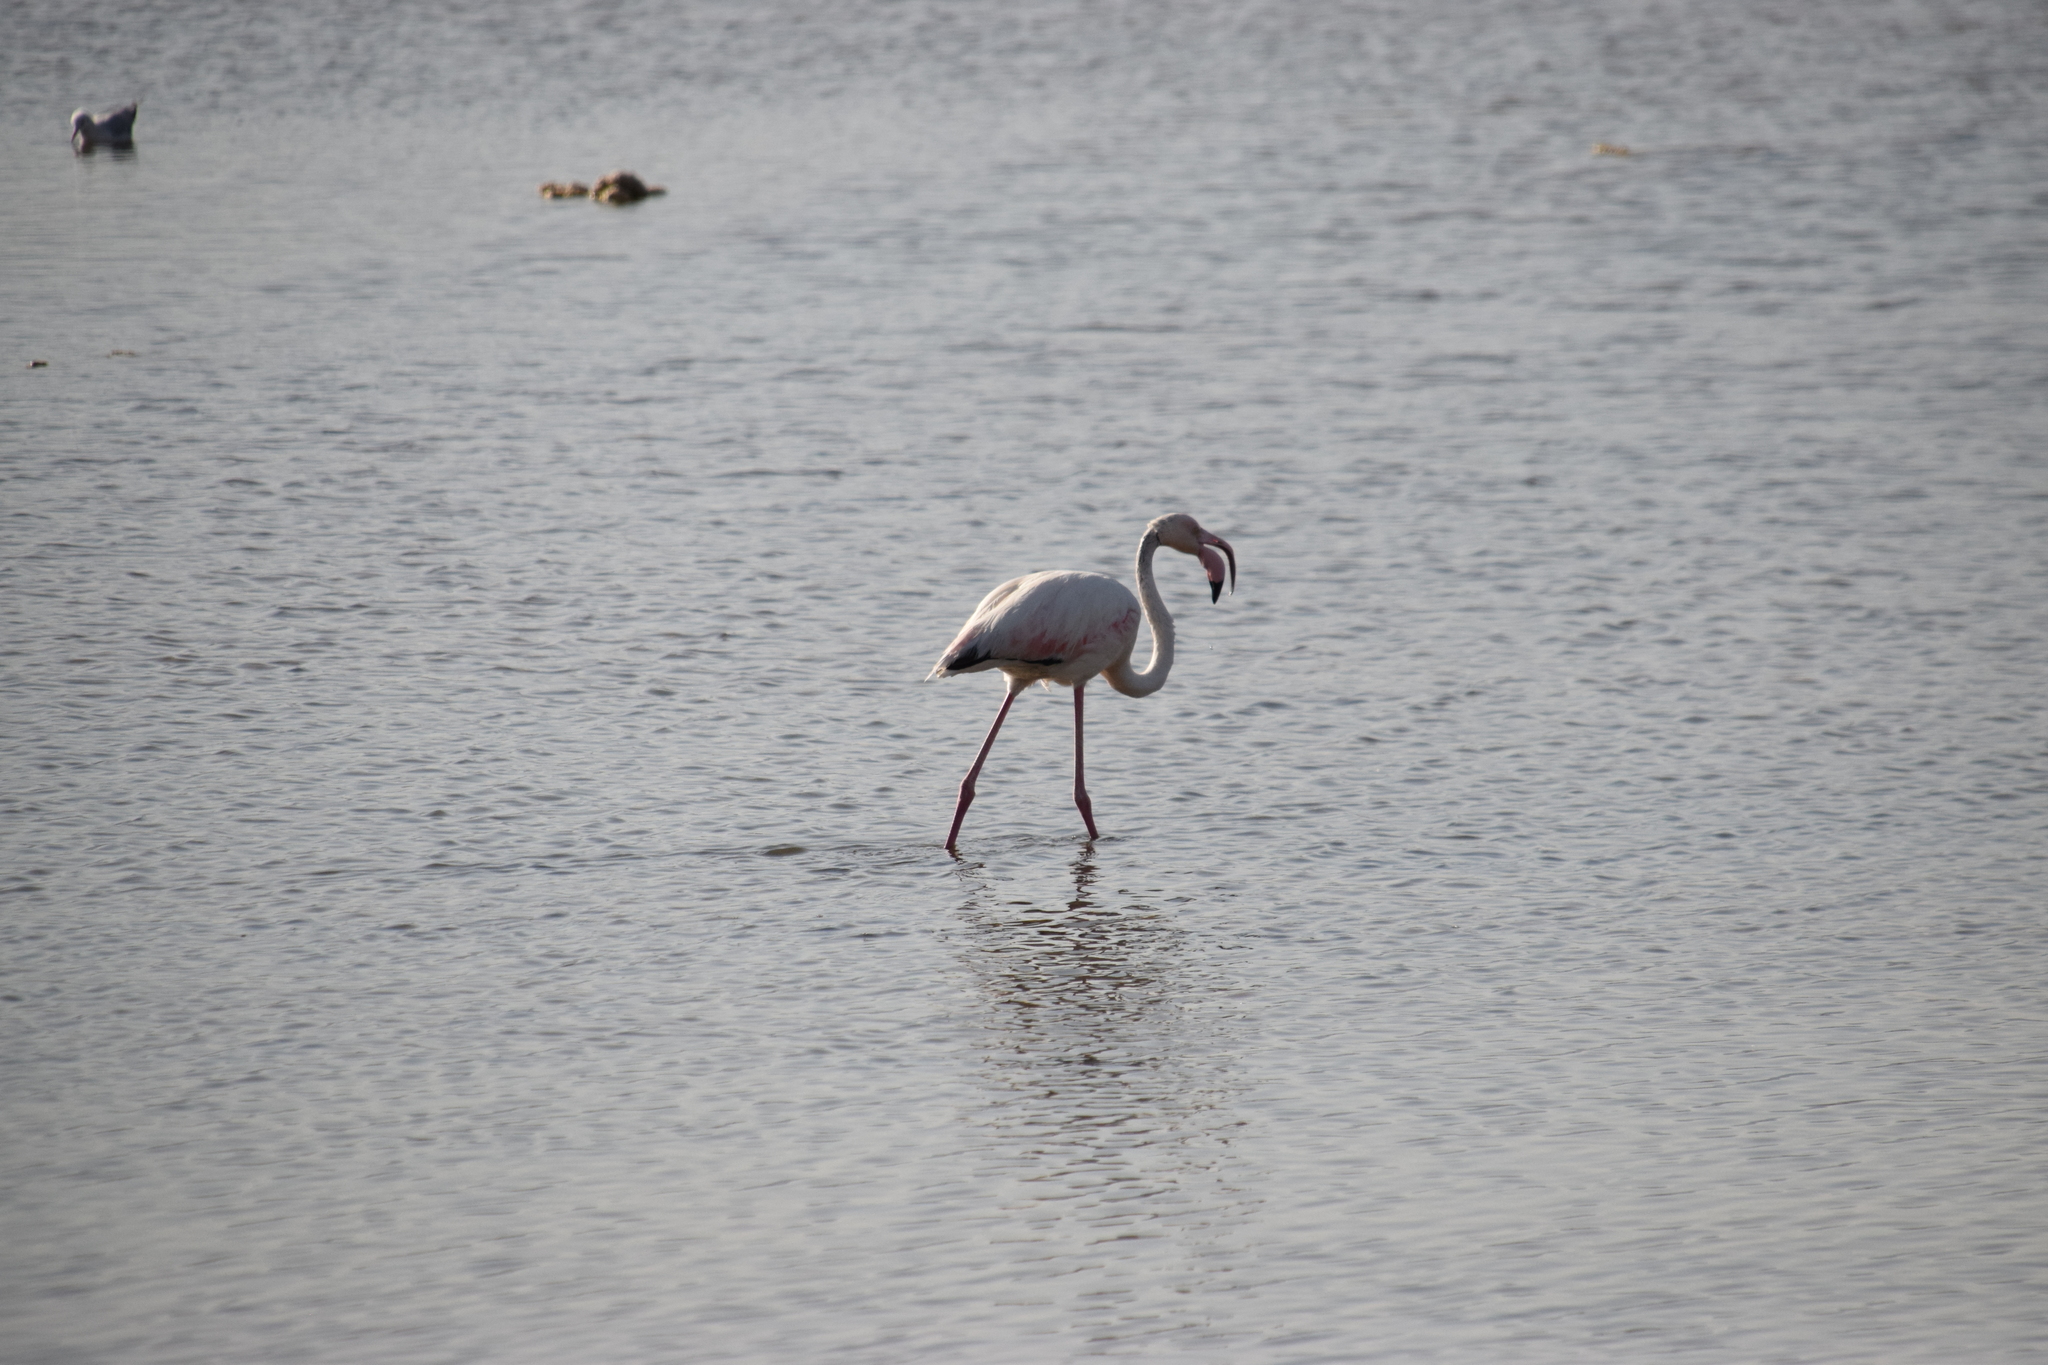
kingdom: Animalia
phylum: Chordata
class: Aves
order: Phoenicopteriformes
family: Phoenicopteridae
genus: Phoenicopterus
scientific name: Phoenicopterus roseus
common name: Greater flamingo
